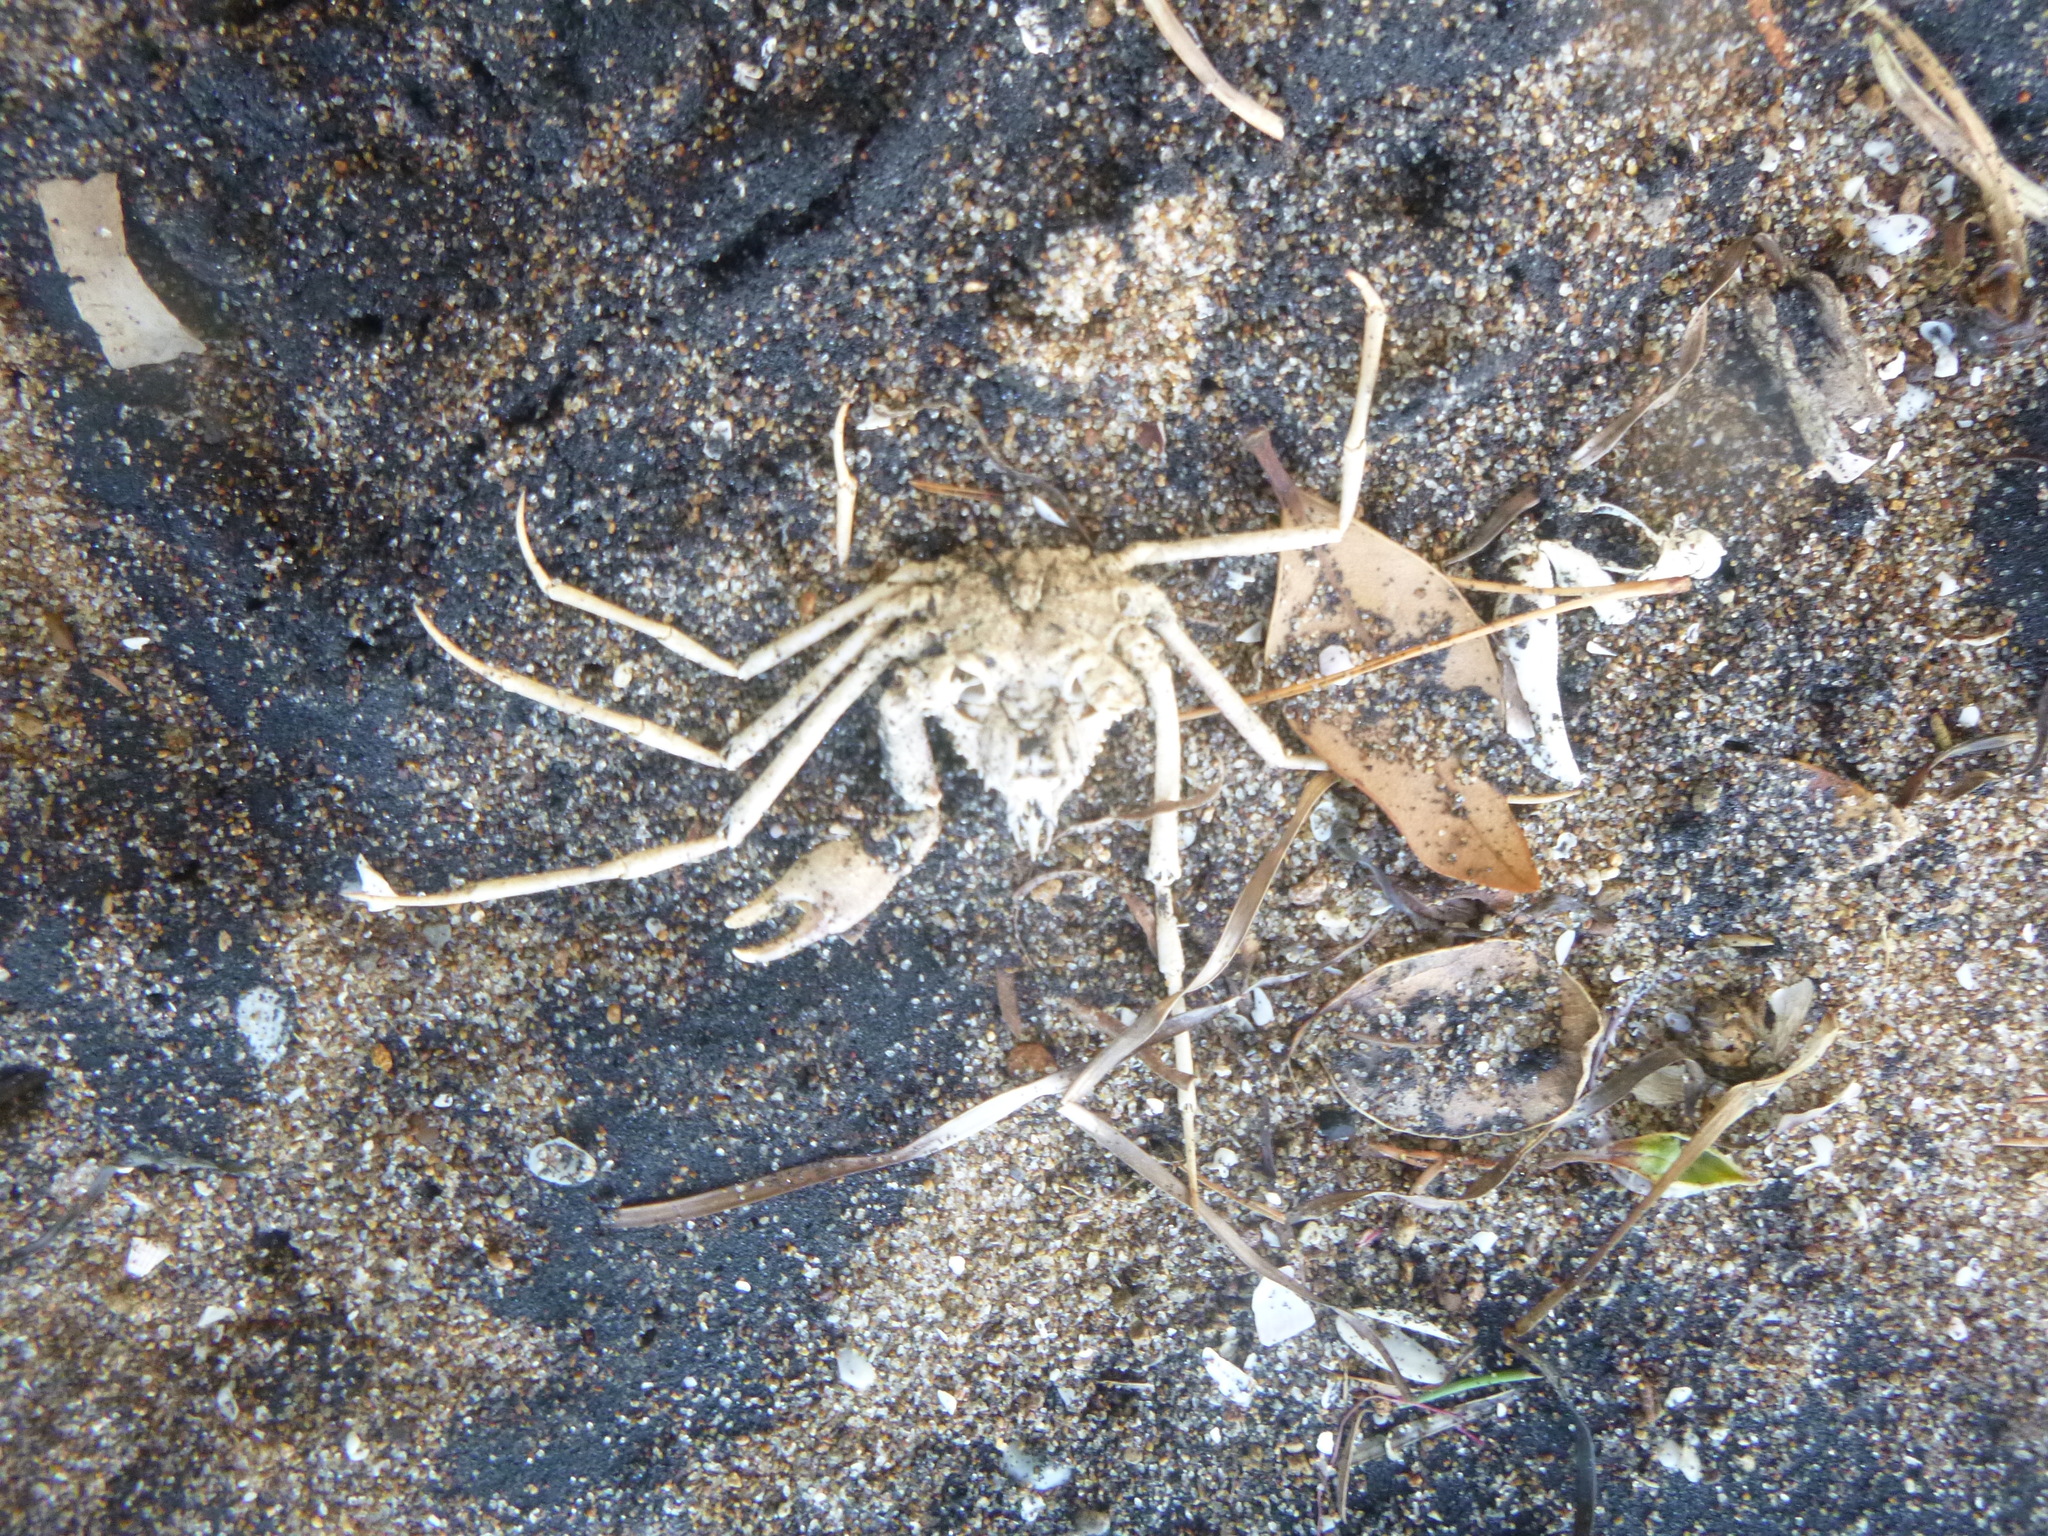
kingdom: Animalia
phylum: Arthropoda
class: Malacostraca
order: Decapoda
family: Inachoididae
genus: Pyromaia
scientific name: Pyromaia tuberculata
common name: Tuberculate pear crab
